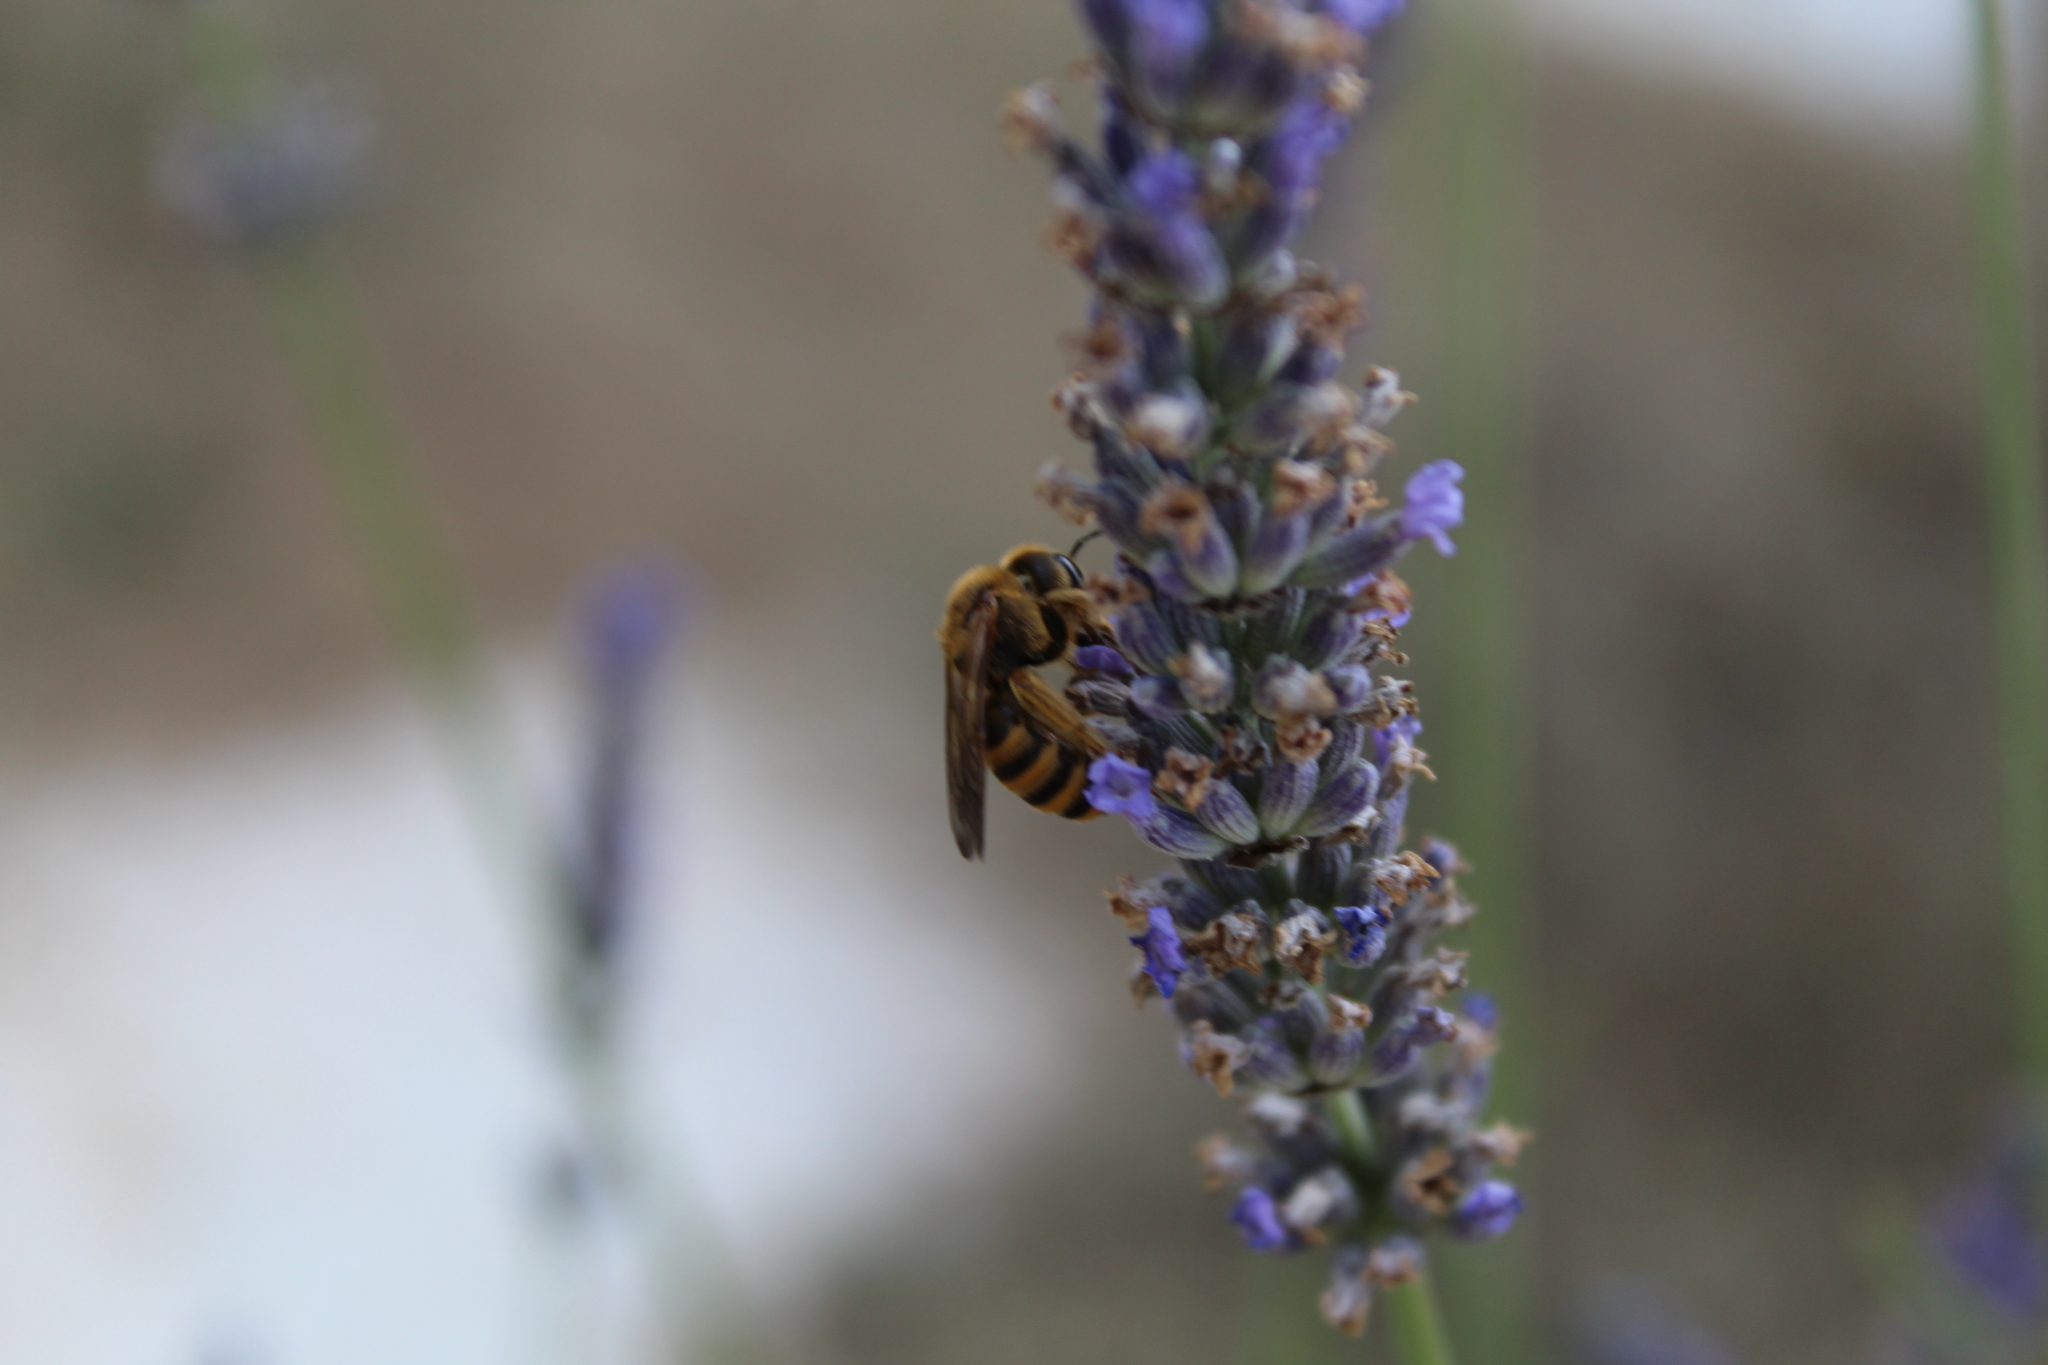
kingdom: Animalia
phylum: Arthropoda
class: Insecta
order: Hymenoptera
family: Halictidae
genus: Halictus
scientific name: Halictus scabiosae
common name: Great banded furrow bee
